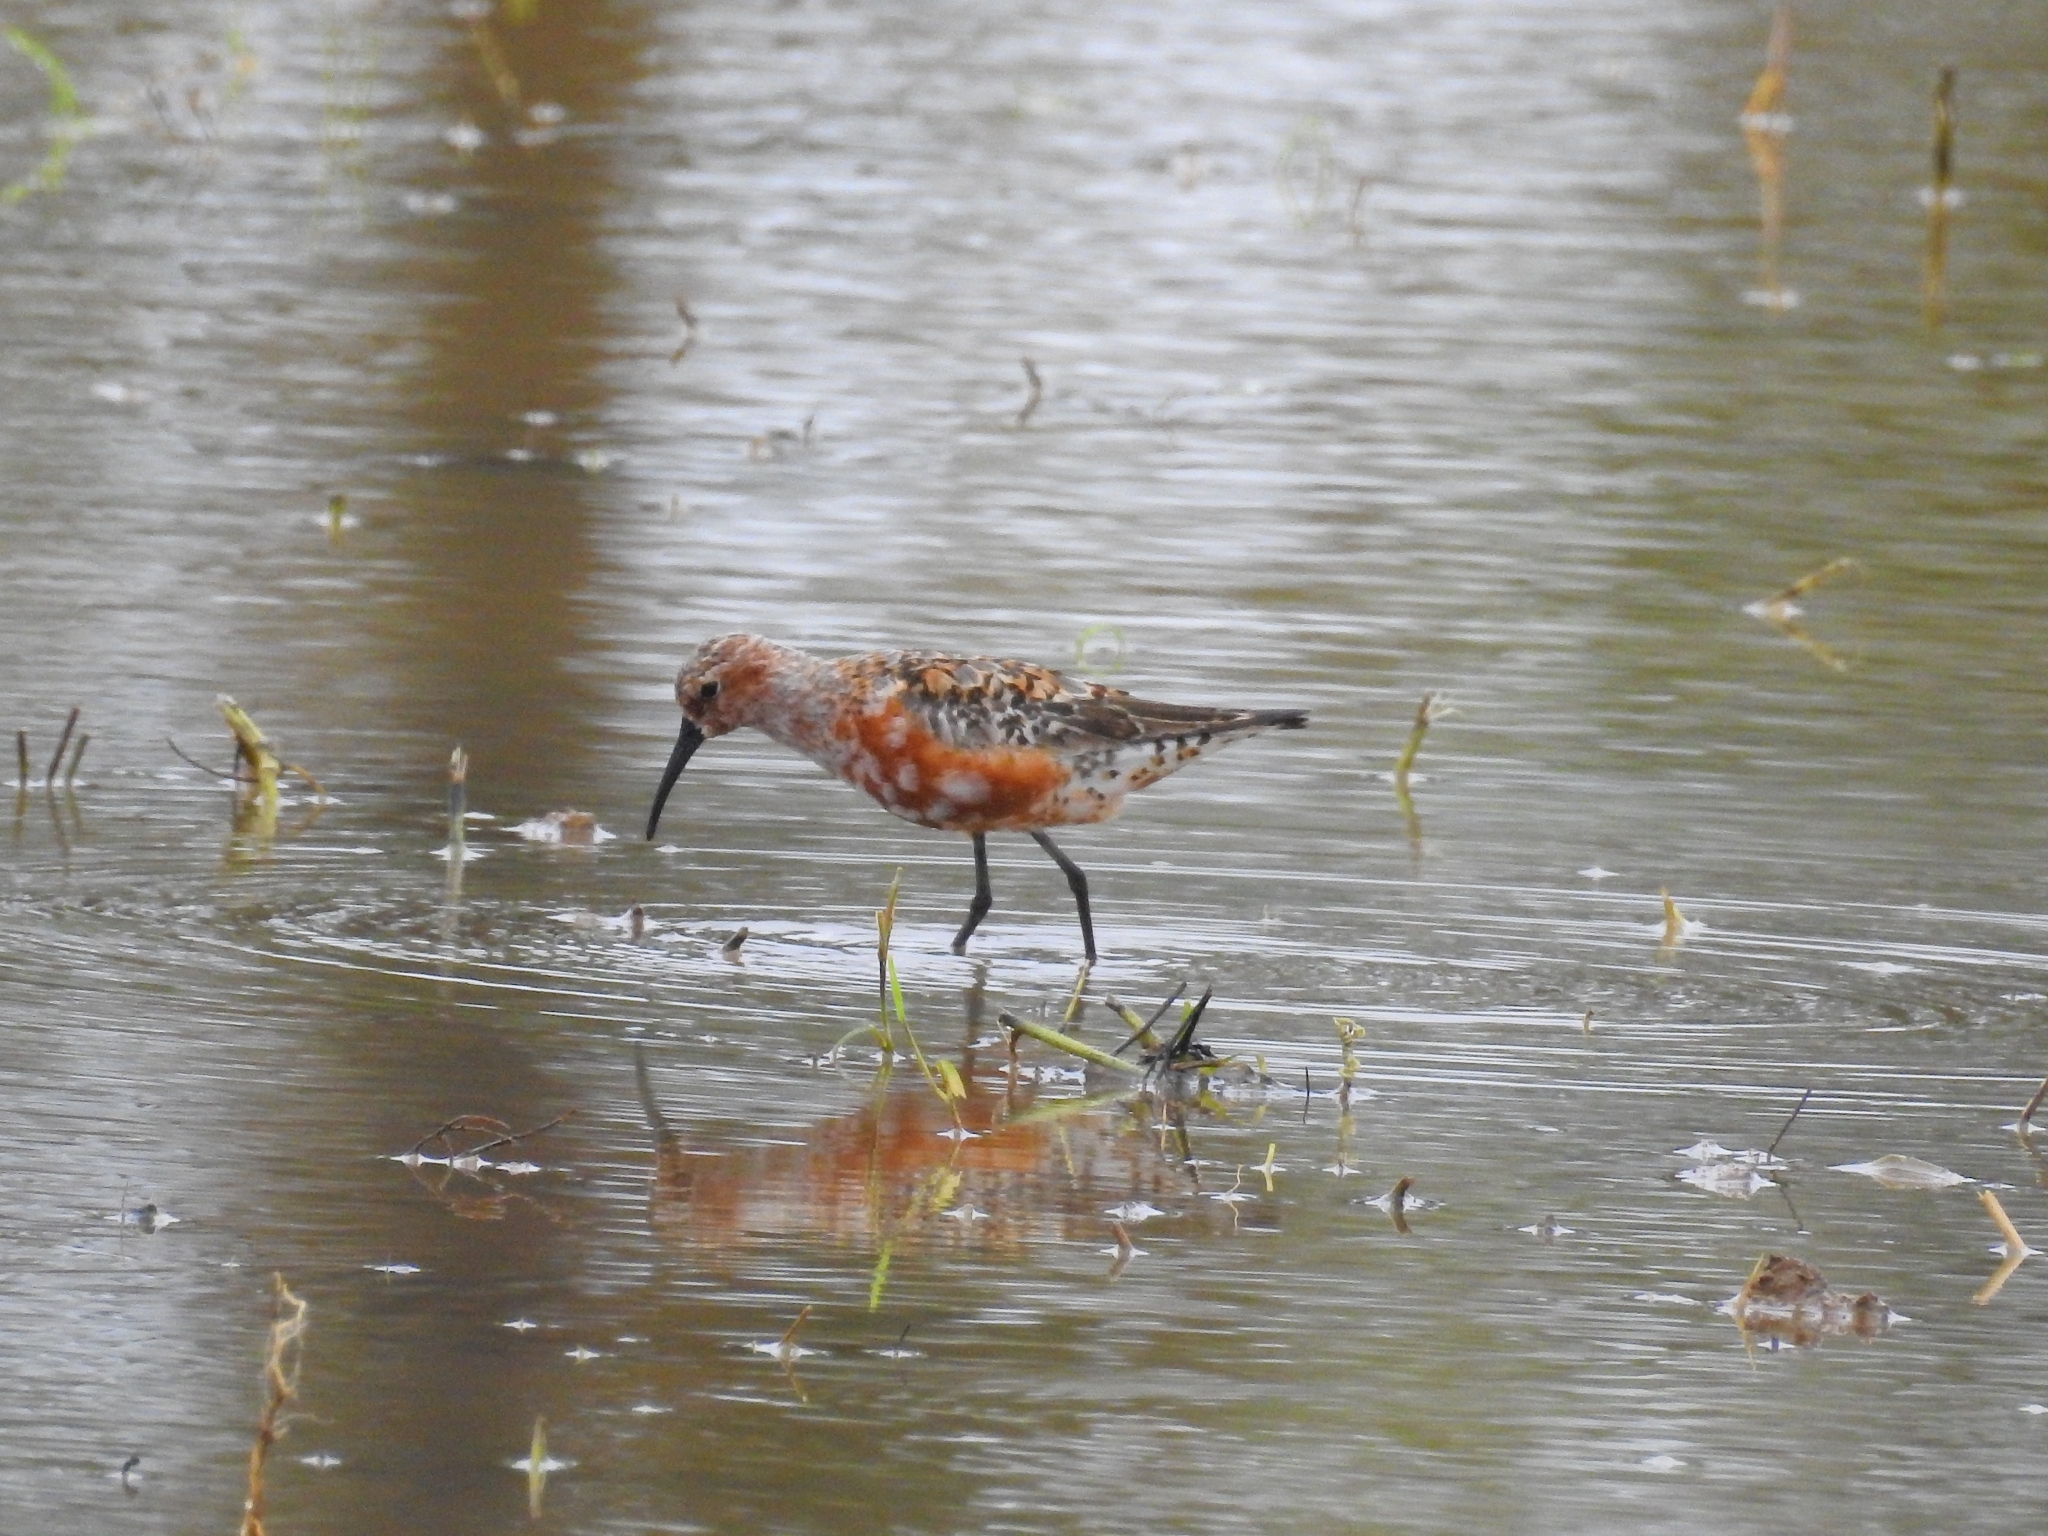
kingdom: Animalia
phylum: Chordata
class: Aves
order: Charadriiformes
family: Scolopacidae
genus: Calidris
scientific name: Calidris ferruginea
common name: Curlew sandpiper
